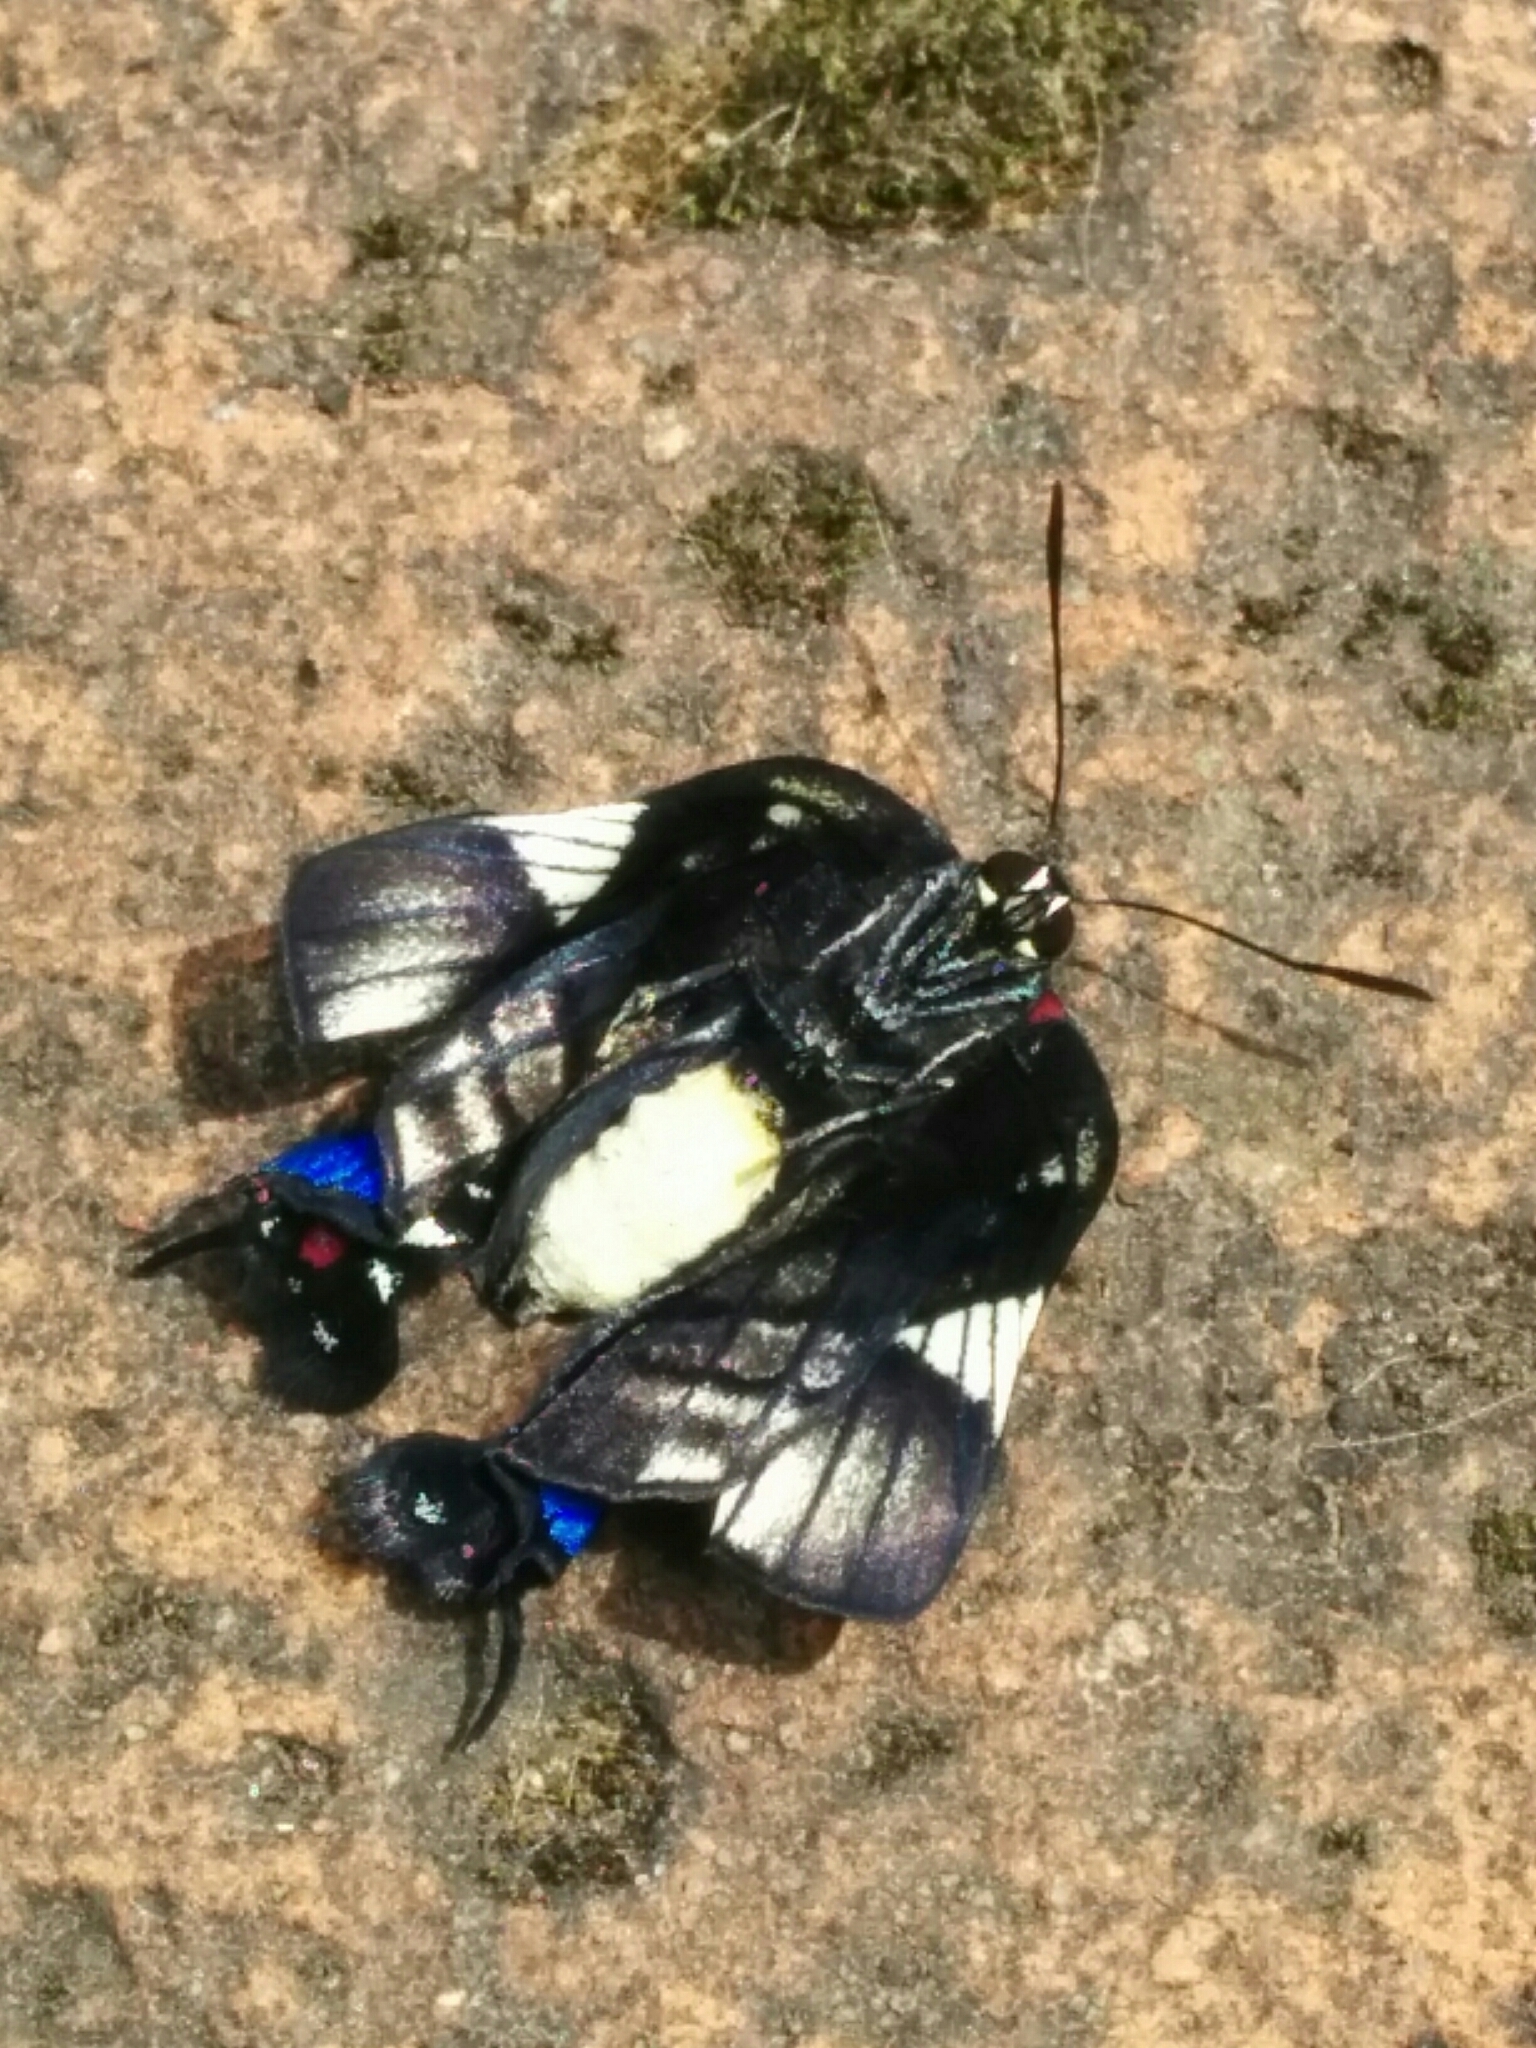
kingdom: Animalia
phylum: Arthropoda
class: Insecta
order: Lepidoptera
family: Lycaenidae
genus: Panthiades
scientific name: Panthiades ochus
